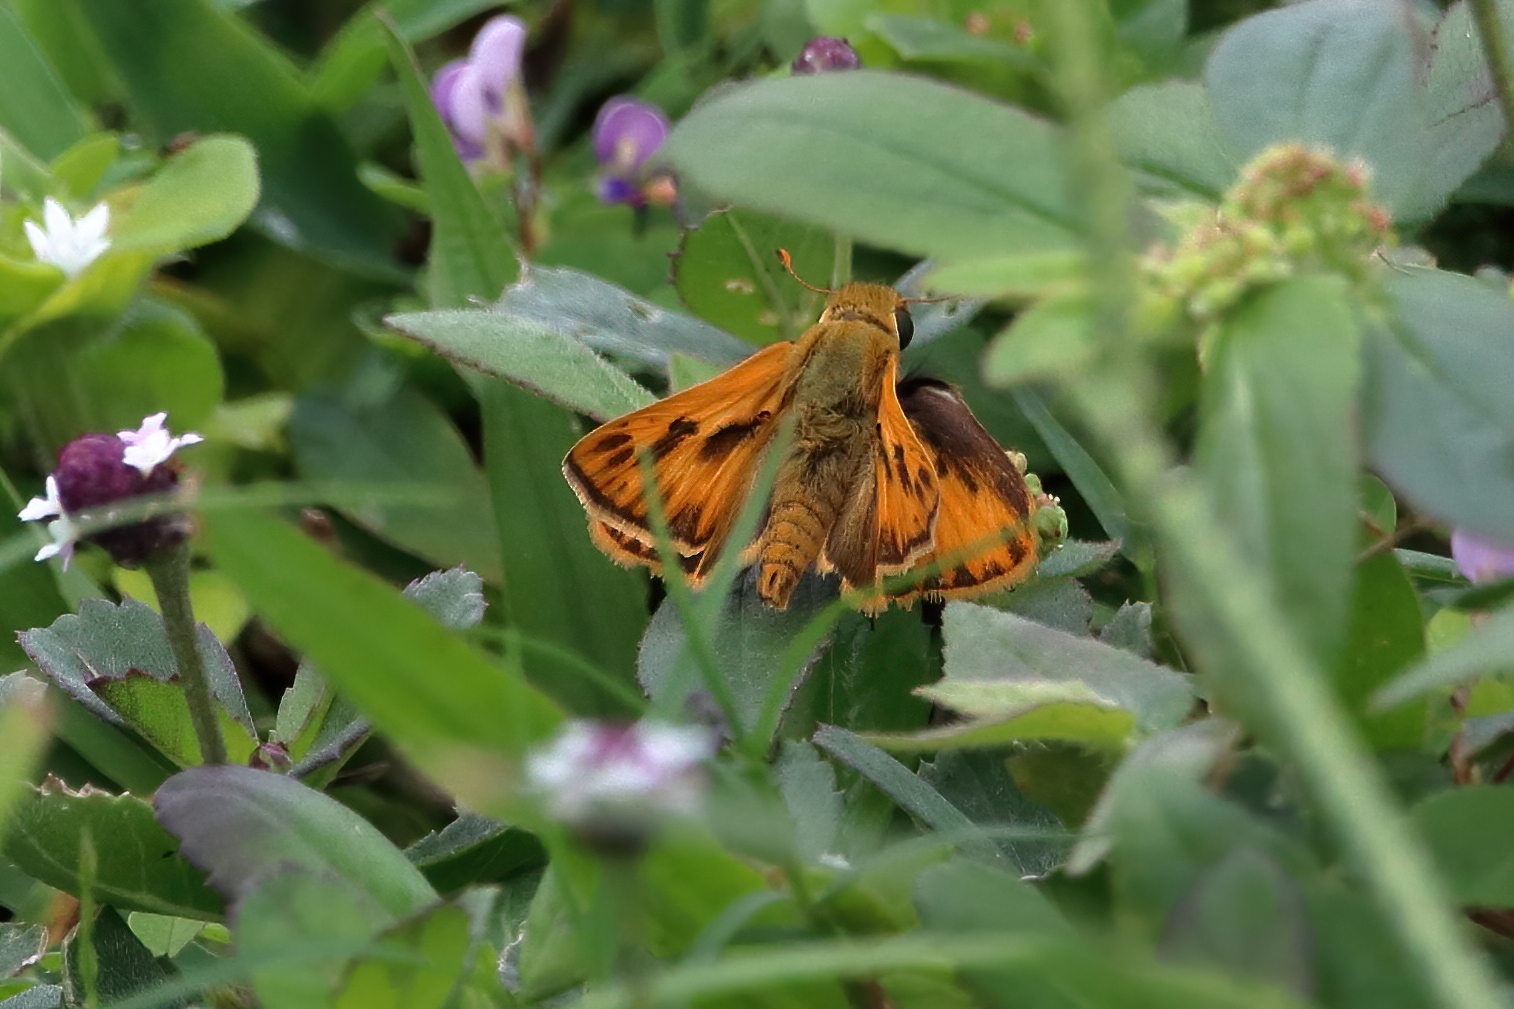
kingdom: Animalia
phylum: Arthropoda
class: Insecta
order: Lepidoptera
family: Hesperiidae
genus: Hylephila
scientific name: Hylephila phyleus
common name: Fiery skipper
